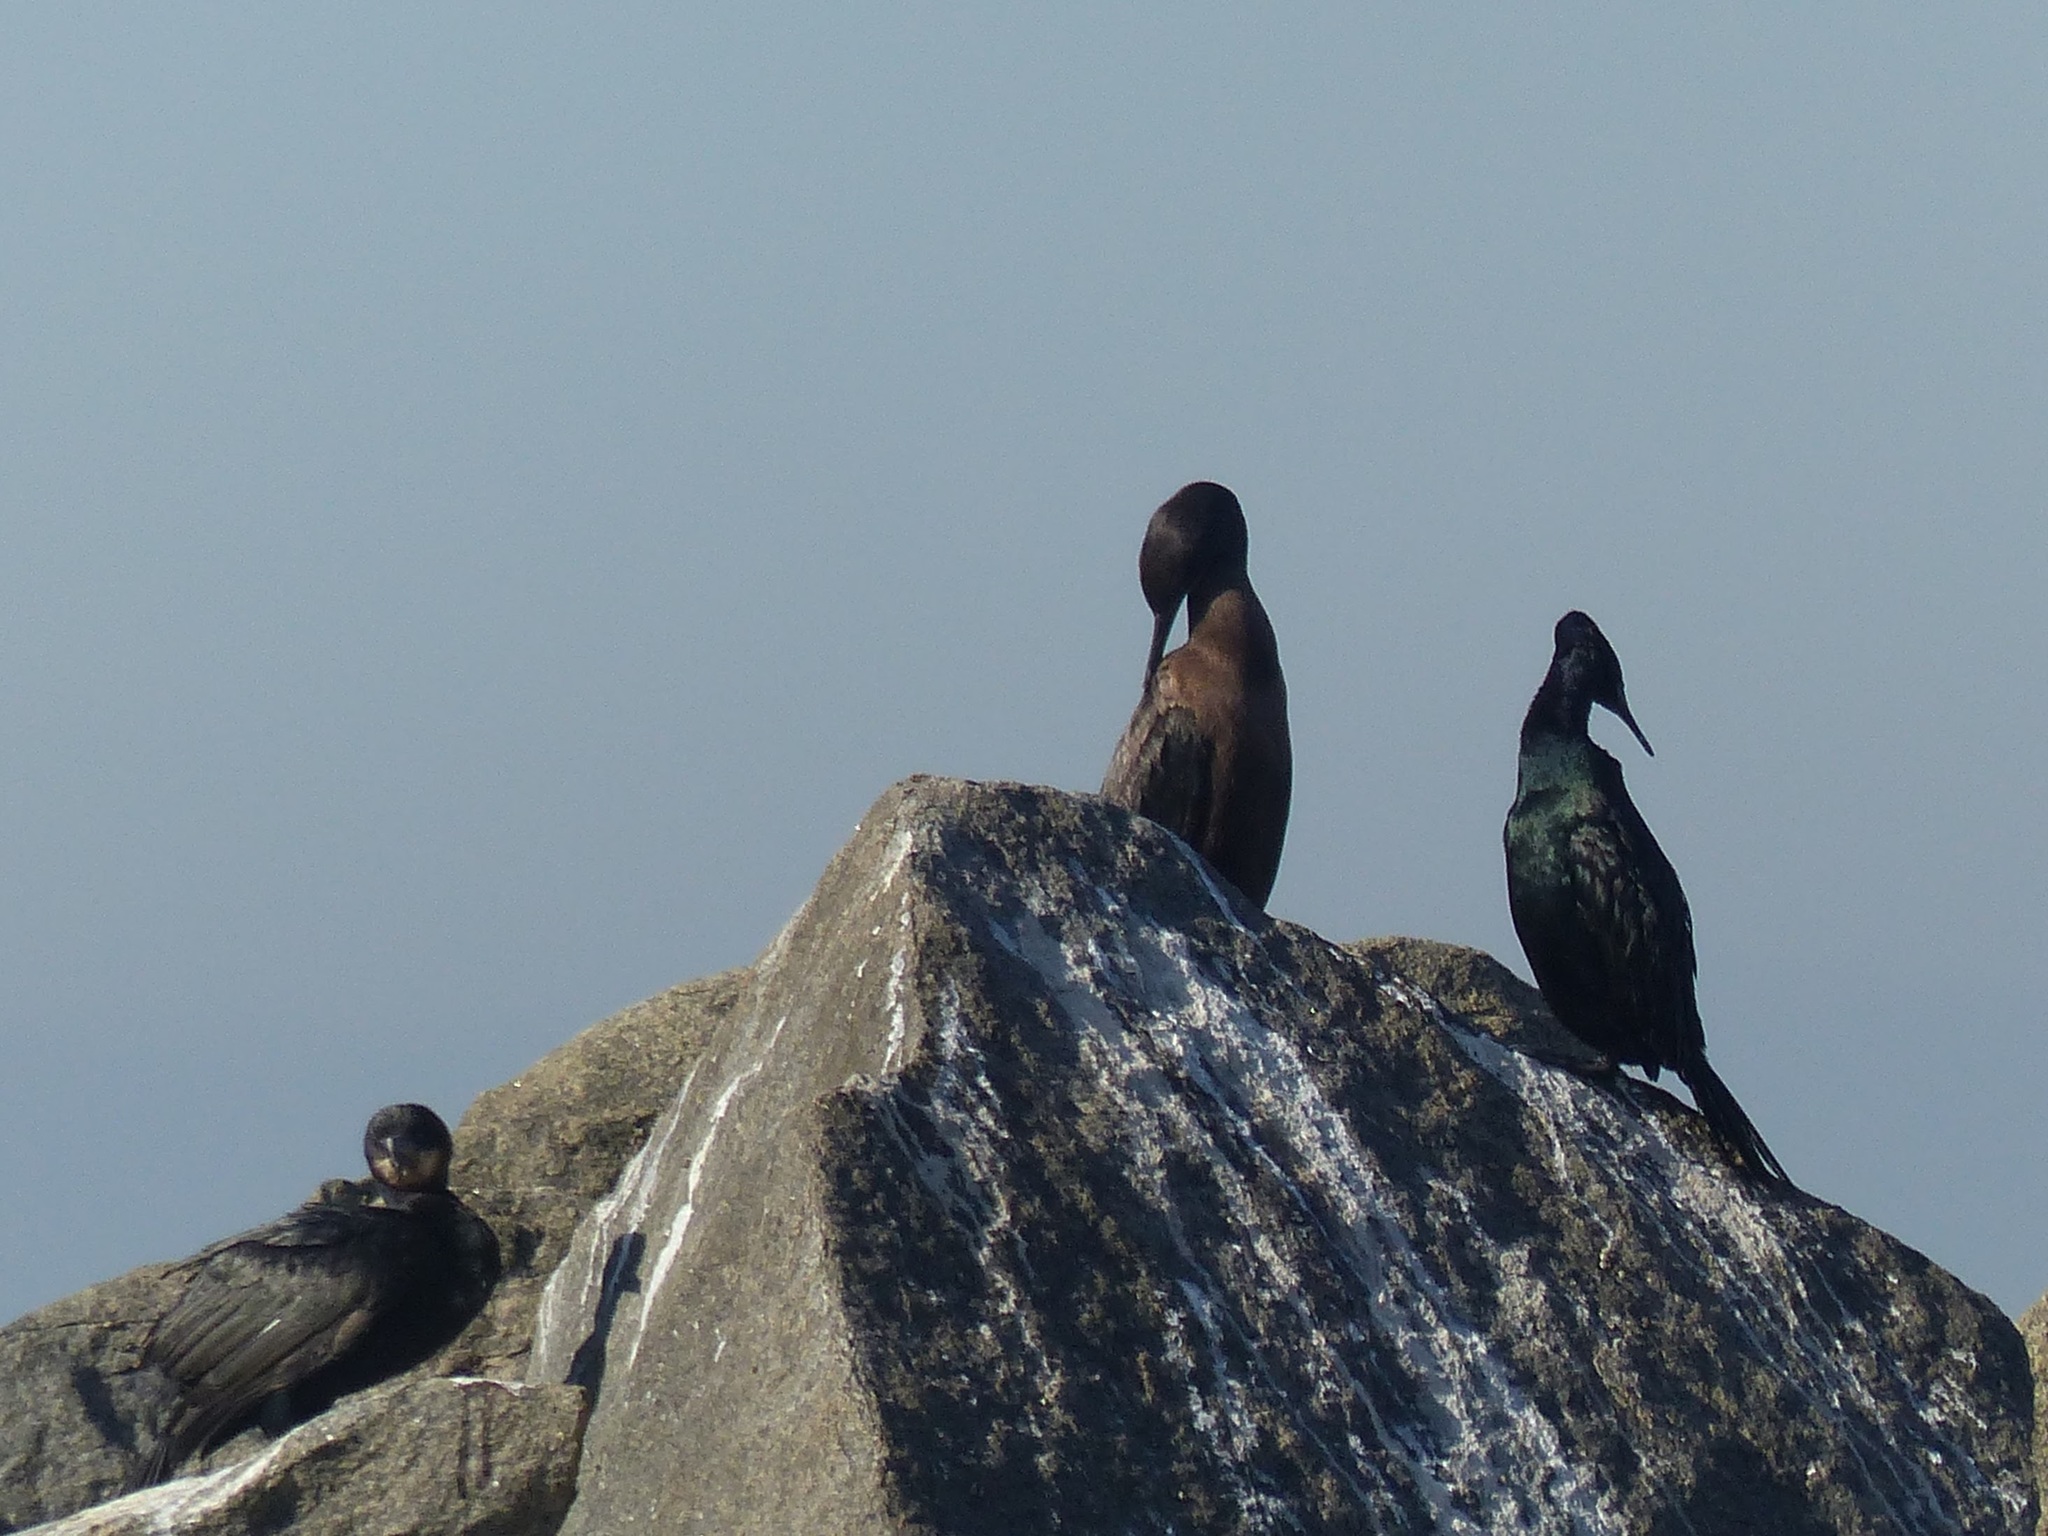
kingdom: Animalia
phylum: Chordata
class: Aves
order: Suliformes
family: Phalacrocoracidae
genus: Urile
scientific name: Urile penicillatus
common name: Brandt's cormorant
